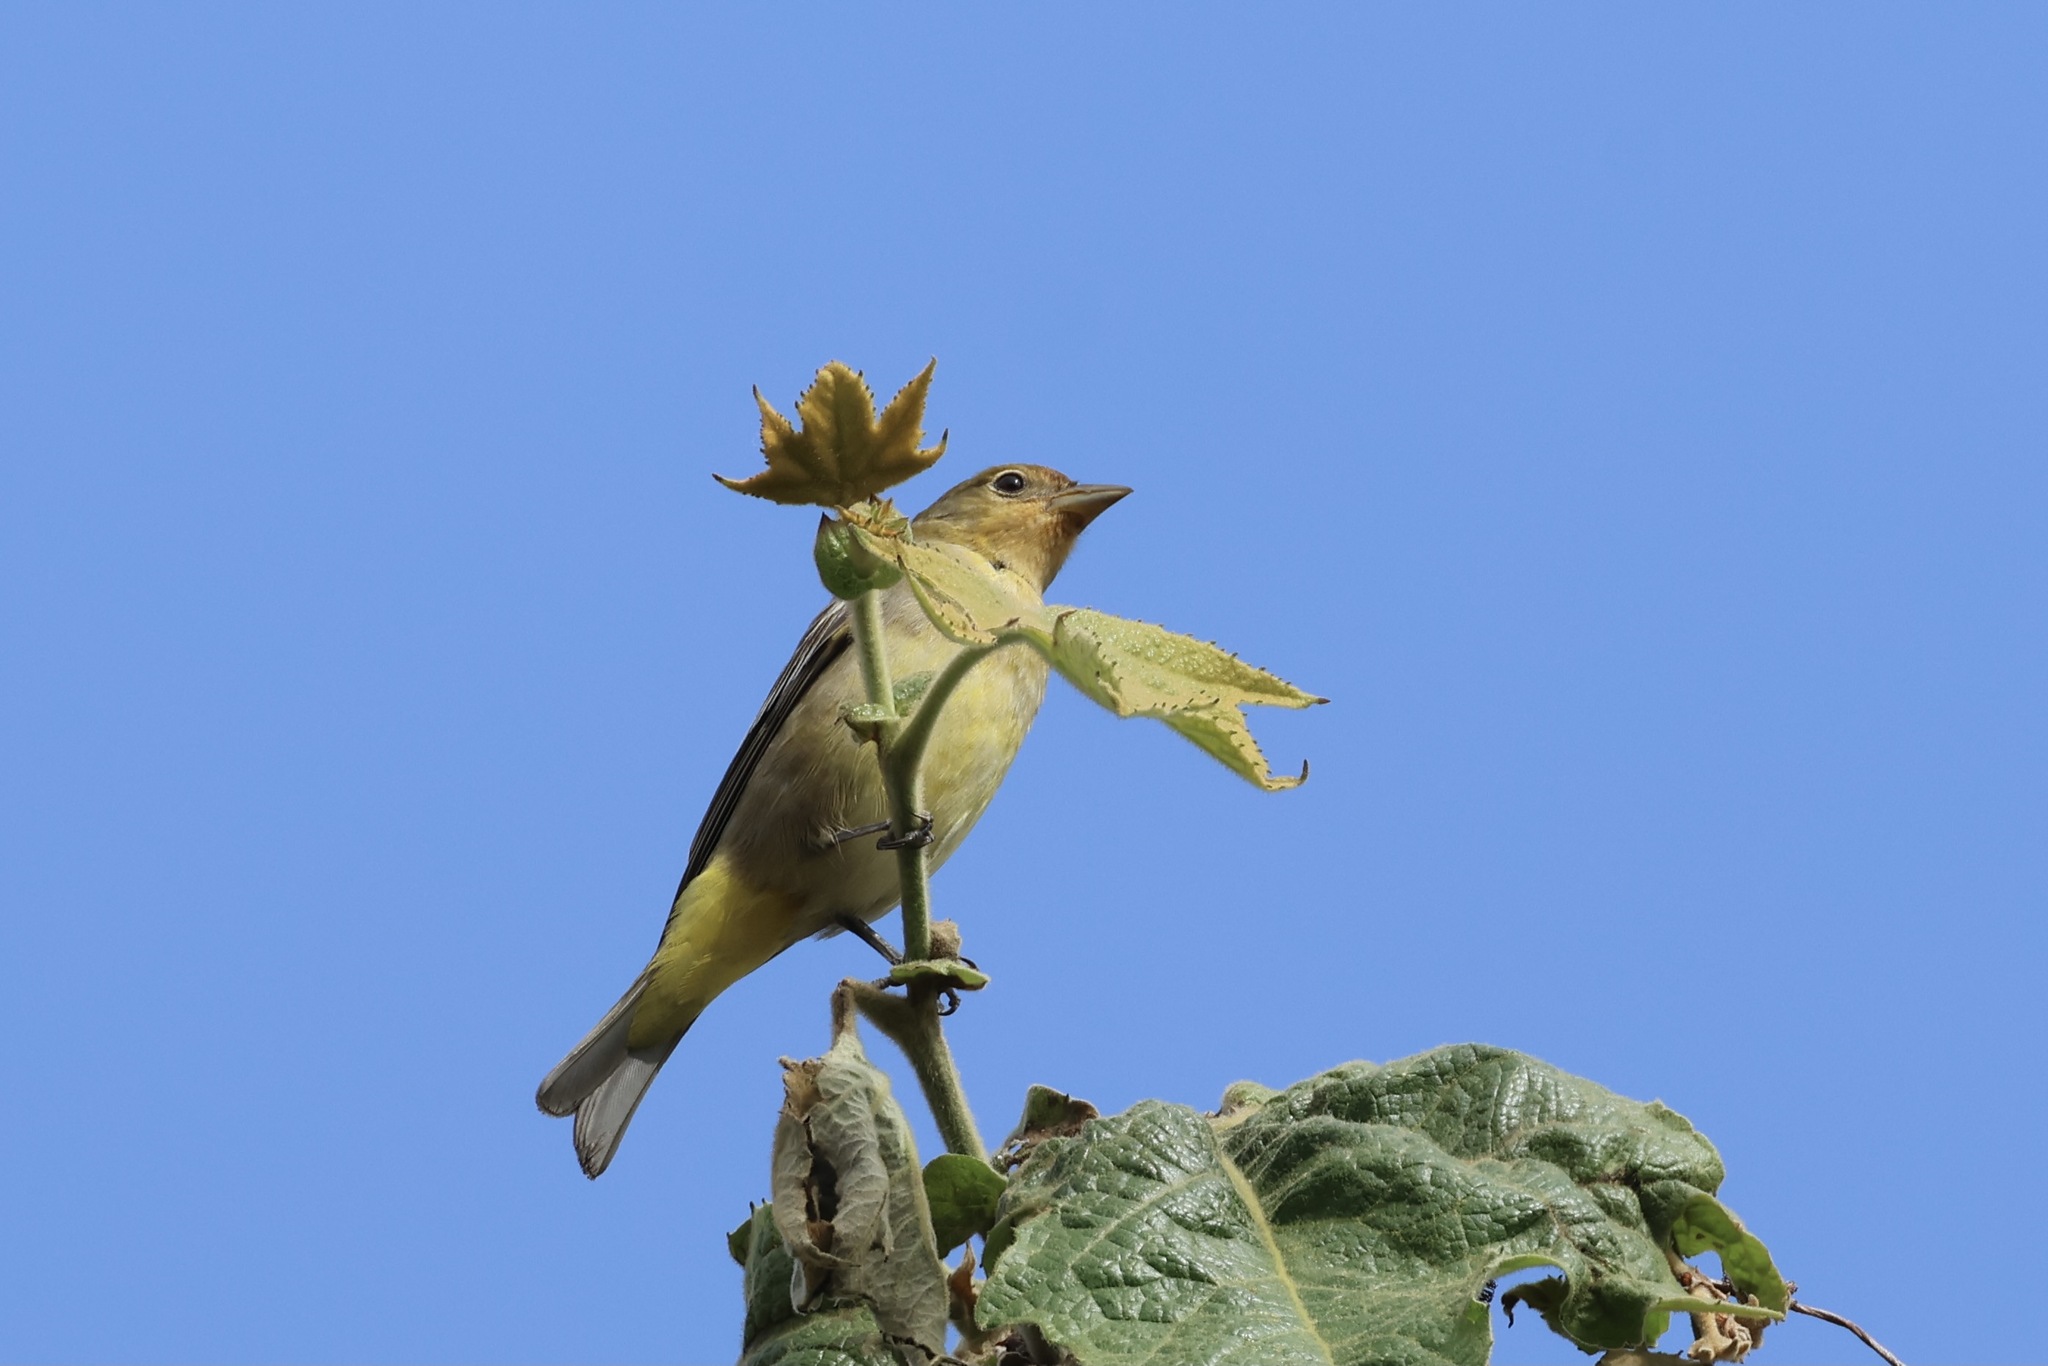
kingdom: Animalia
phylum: Chordata
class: Aves
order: Passeriformes
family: Cardinalidae
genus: Piranga
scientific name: Piranga ludoviciana
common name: Western tanager
